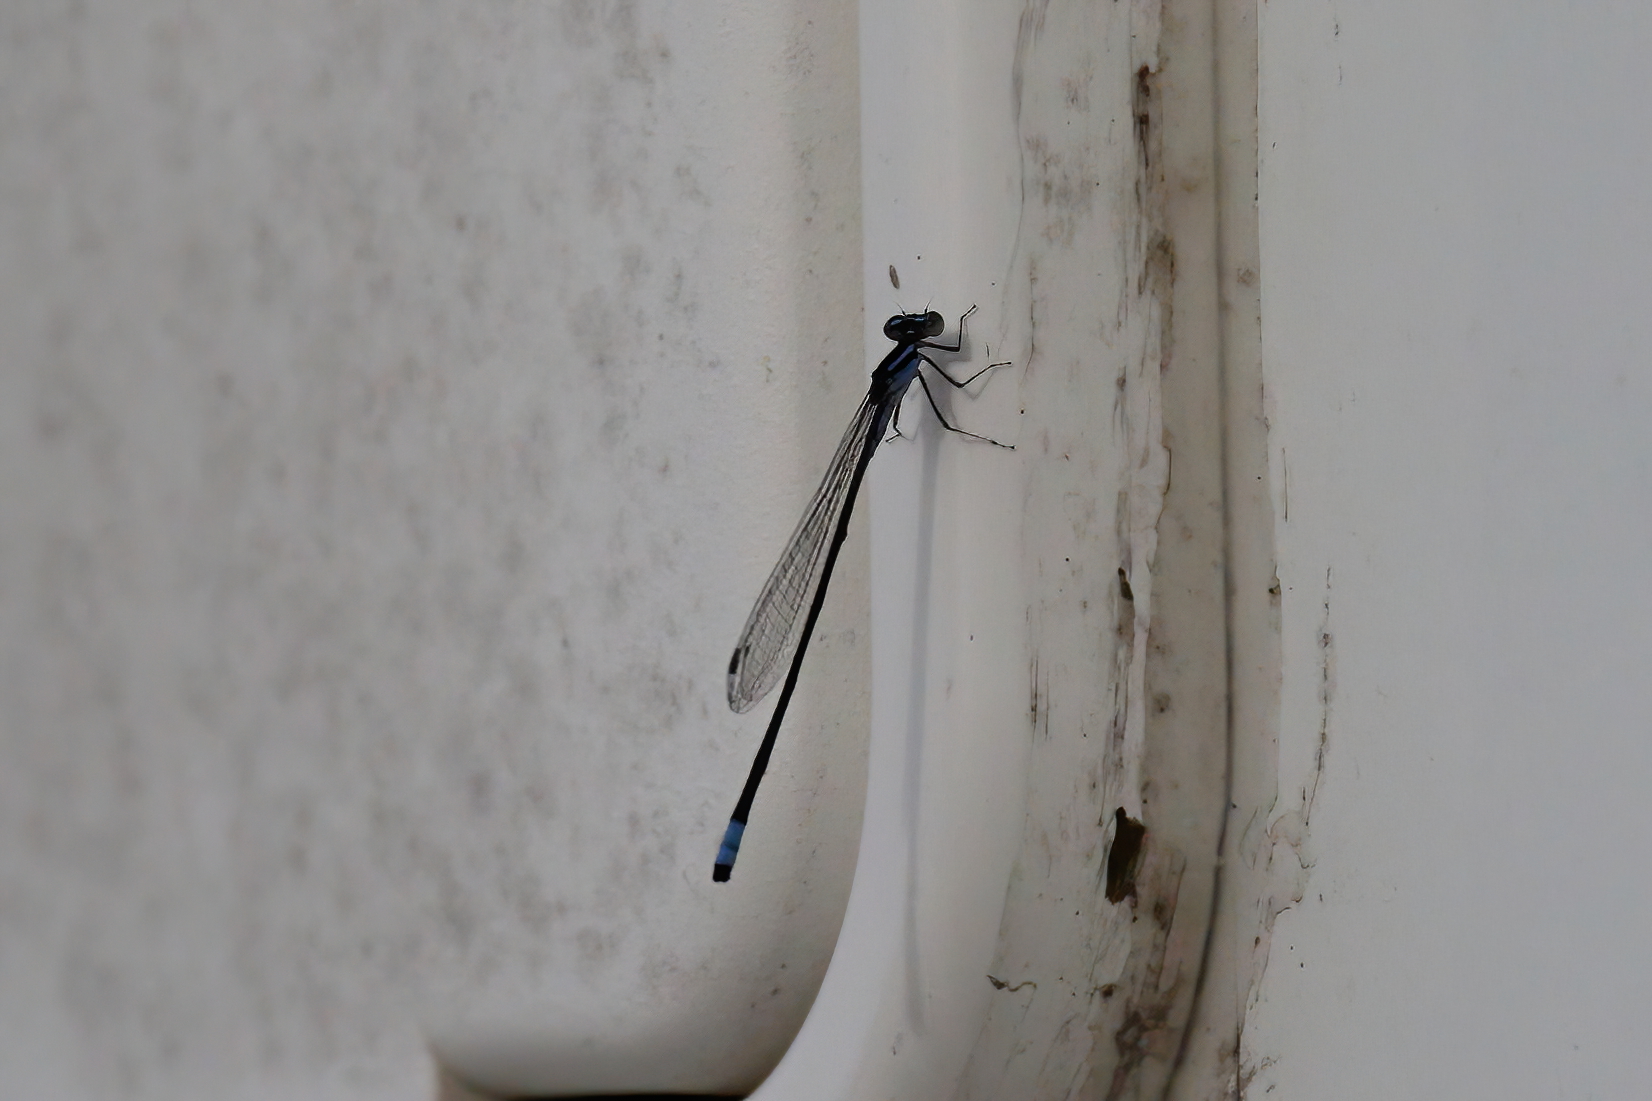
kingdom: Animalia
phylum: Arthropoda
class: Insecta
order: Odonata
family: Coenagrionidae
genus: Enallagma
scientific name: Enallagma divagans
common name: Turquoise bluet
